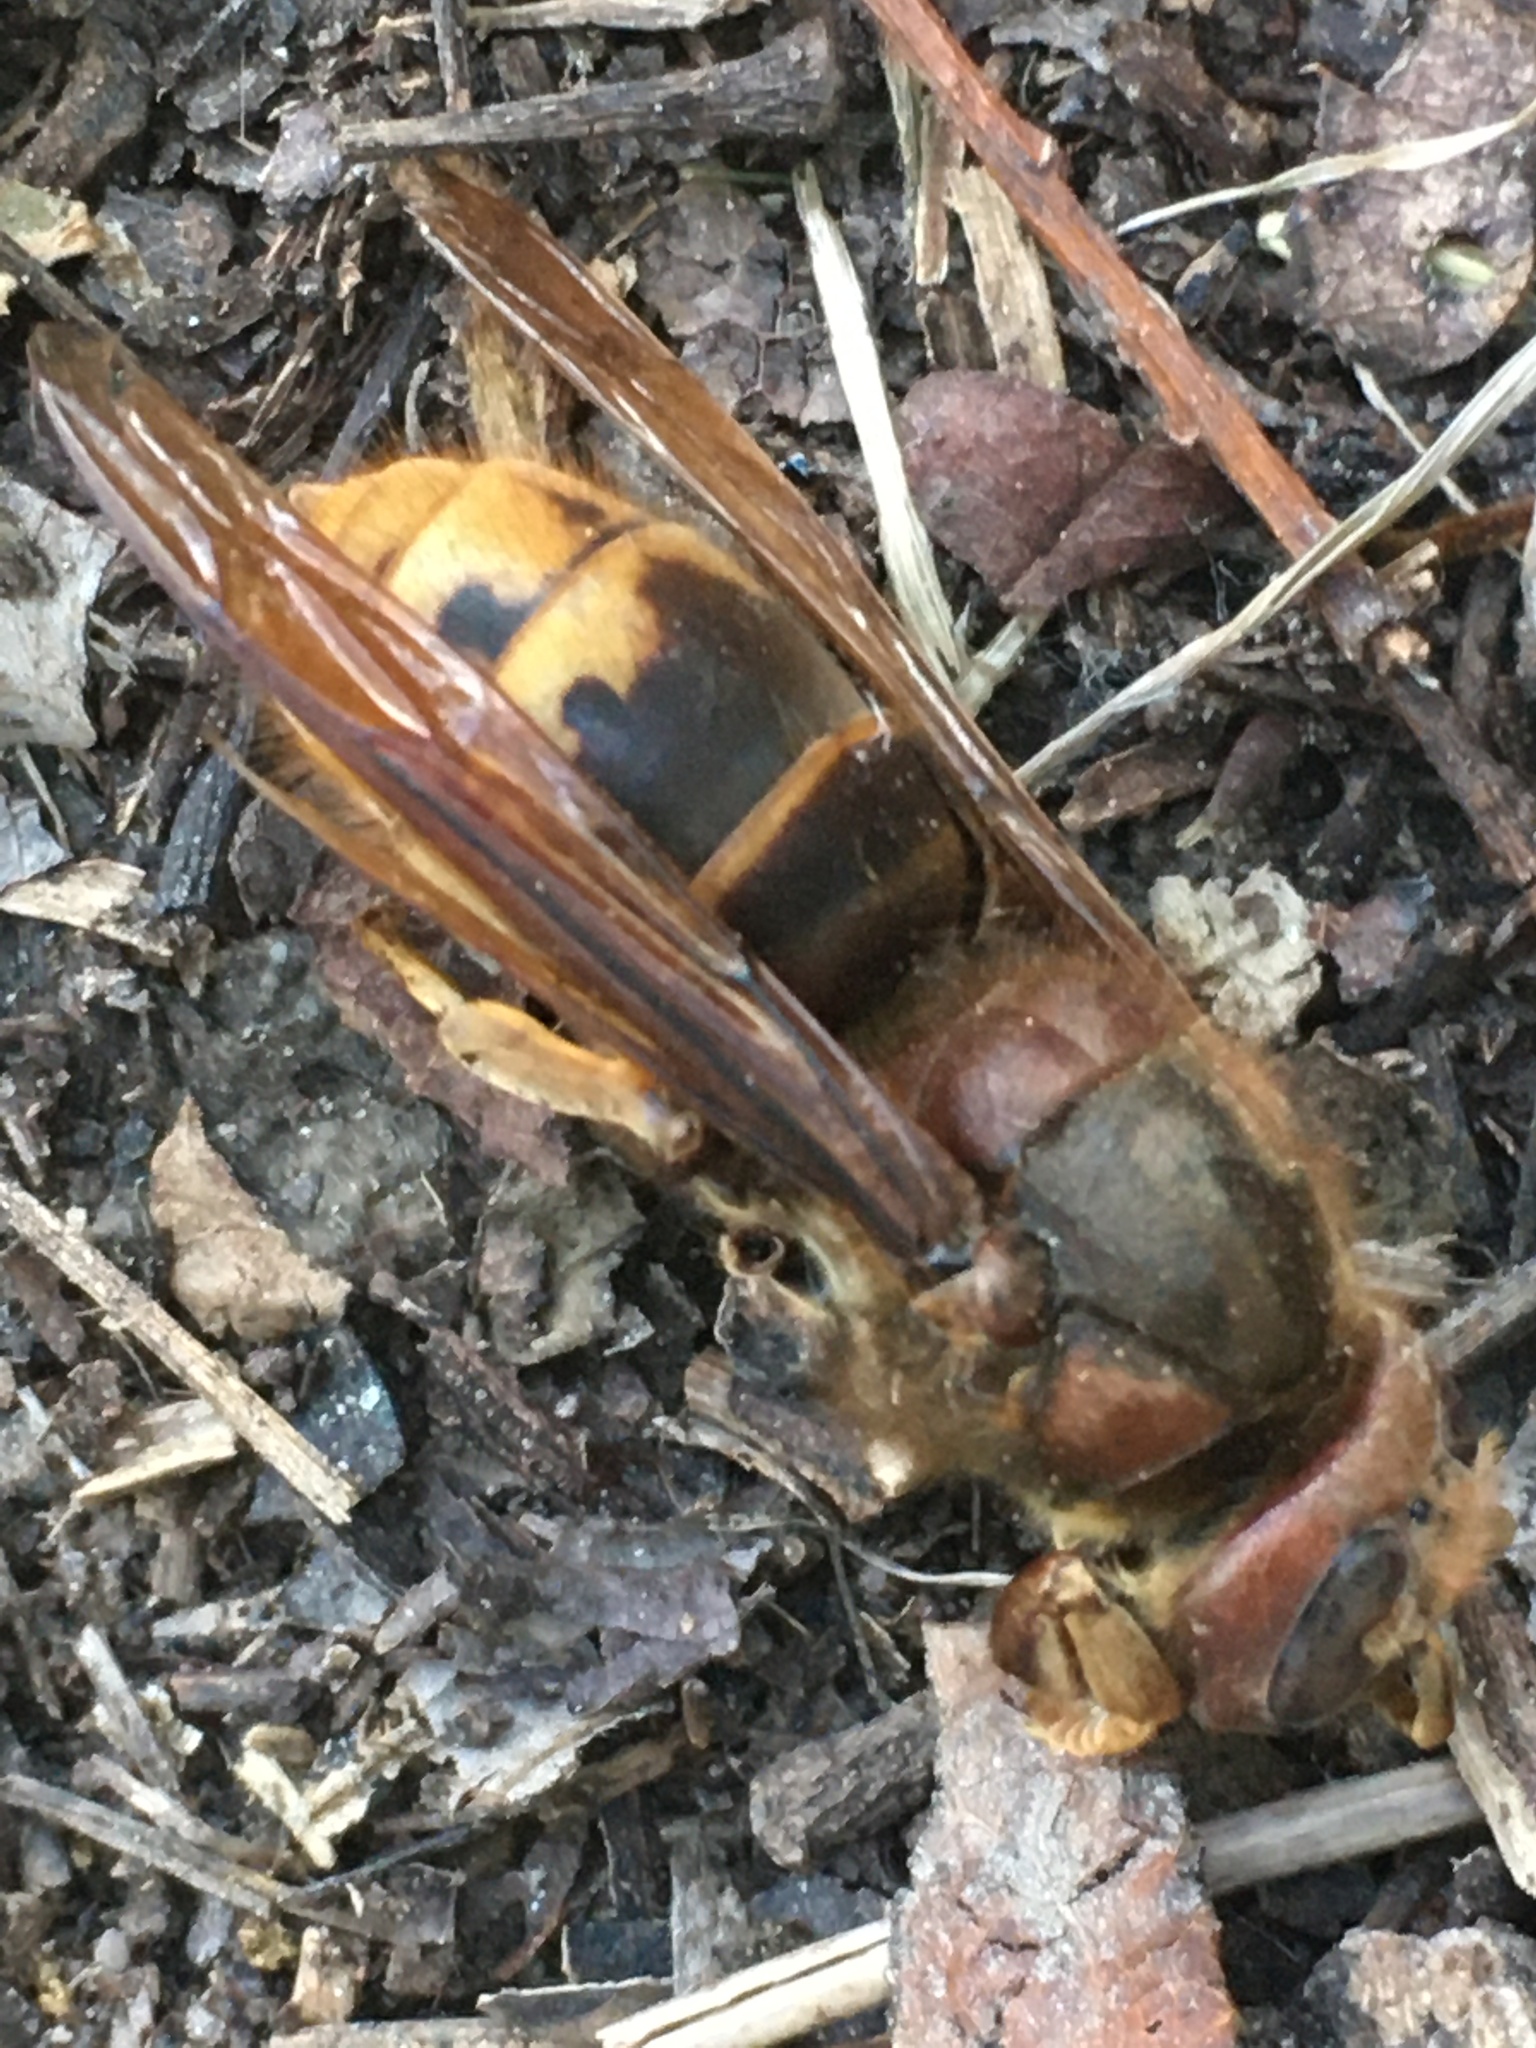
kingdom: Animalia
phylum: Arthropoda
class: Insecta
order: Hymenoptera
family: Vespidae
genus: Vespa
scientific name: Vespa crabro
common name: Hornet
